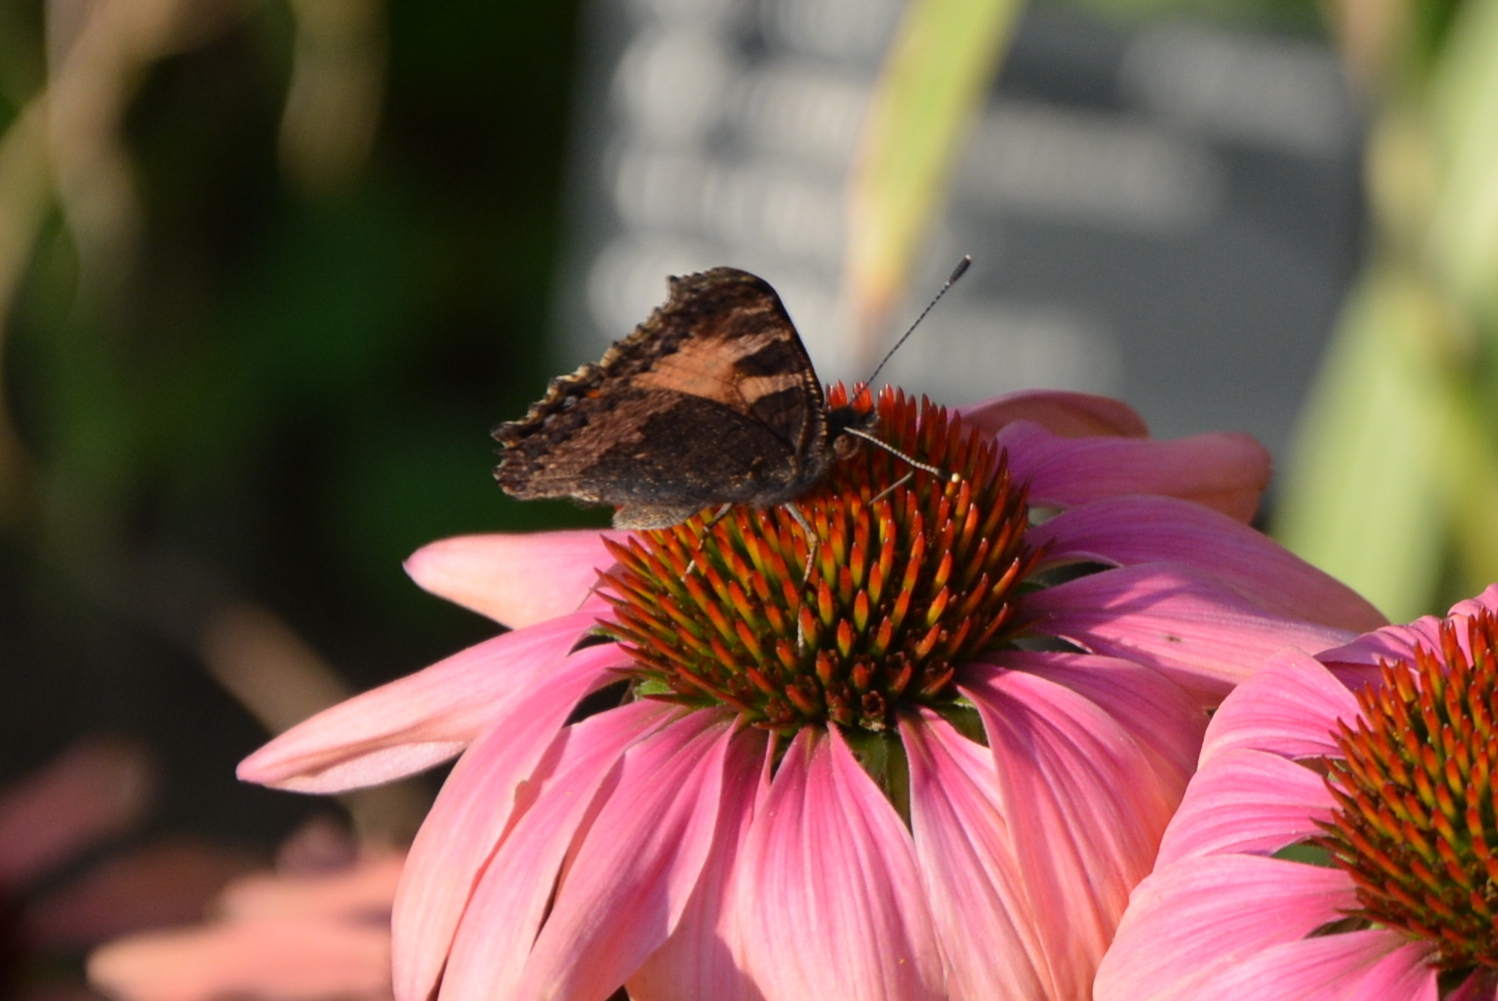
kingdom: Animalia
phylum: Arthropoda
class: Insecta
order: Lepidoptera
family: Nymphalidae
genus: Aglais
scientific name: Aglais urticae
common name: Small tortoiseshell
